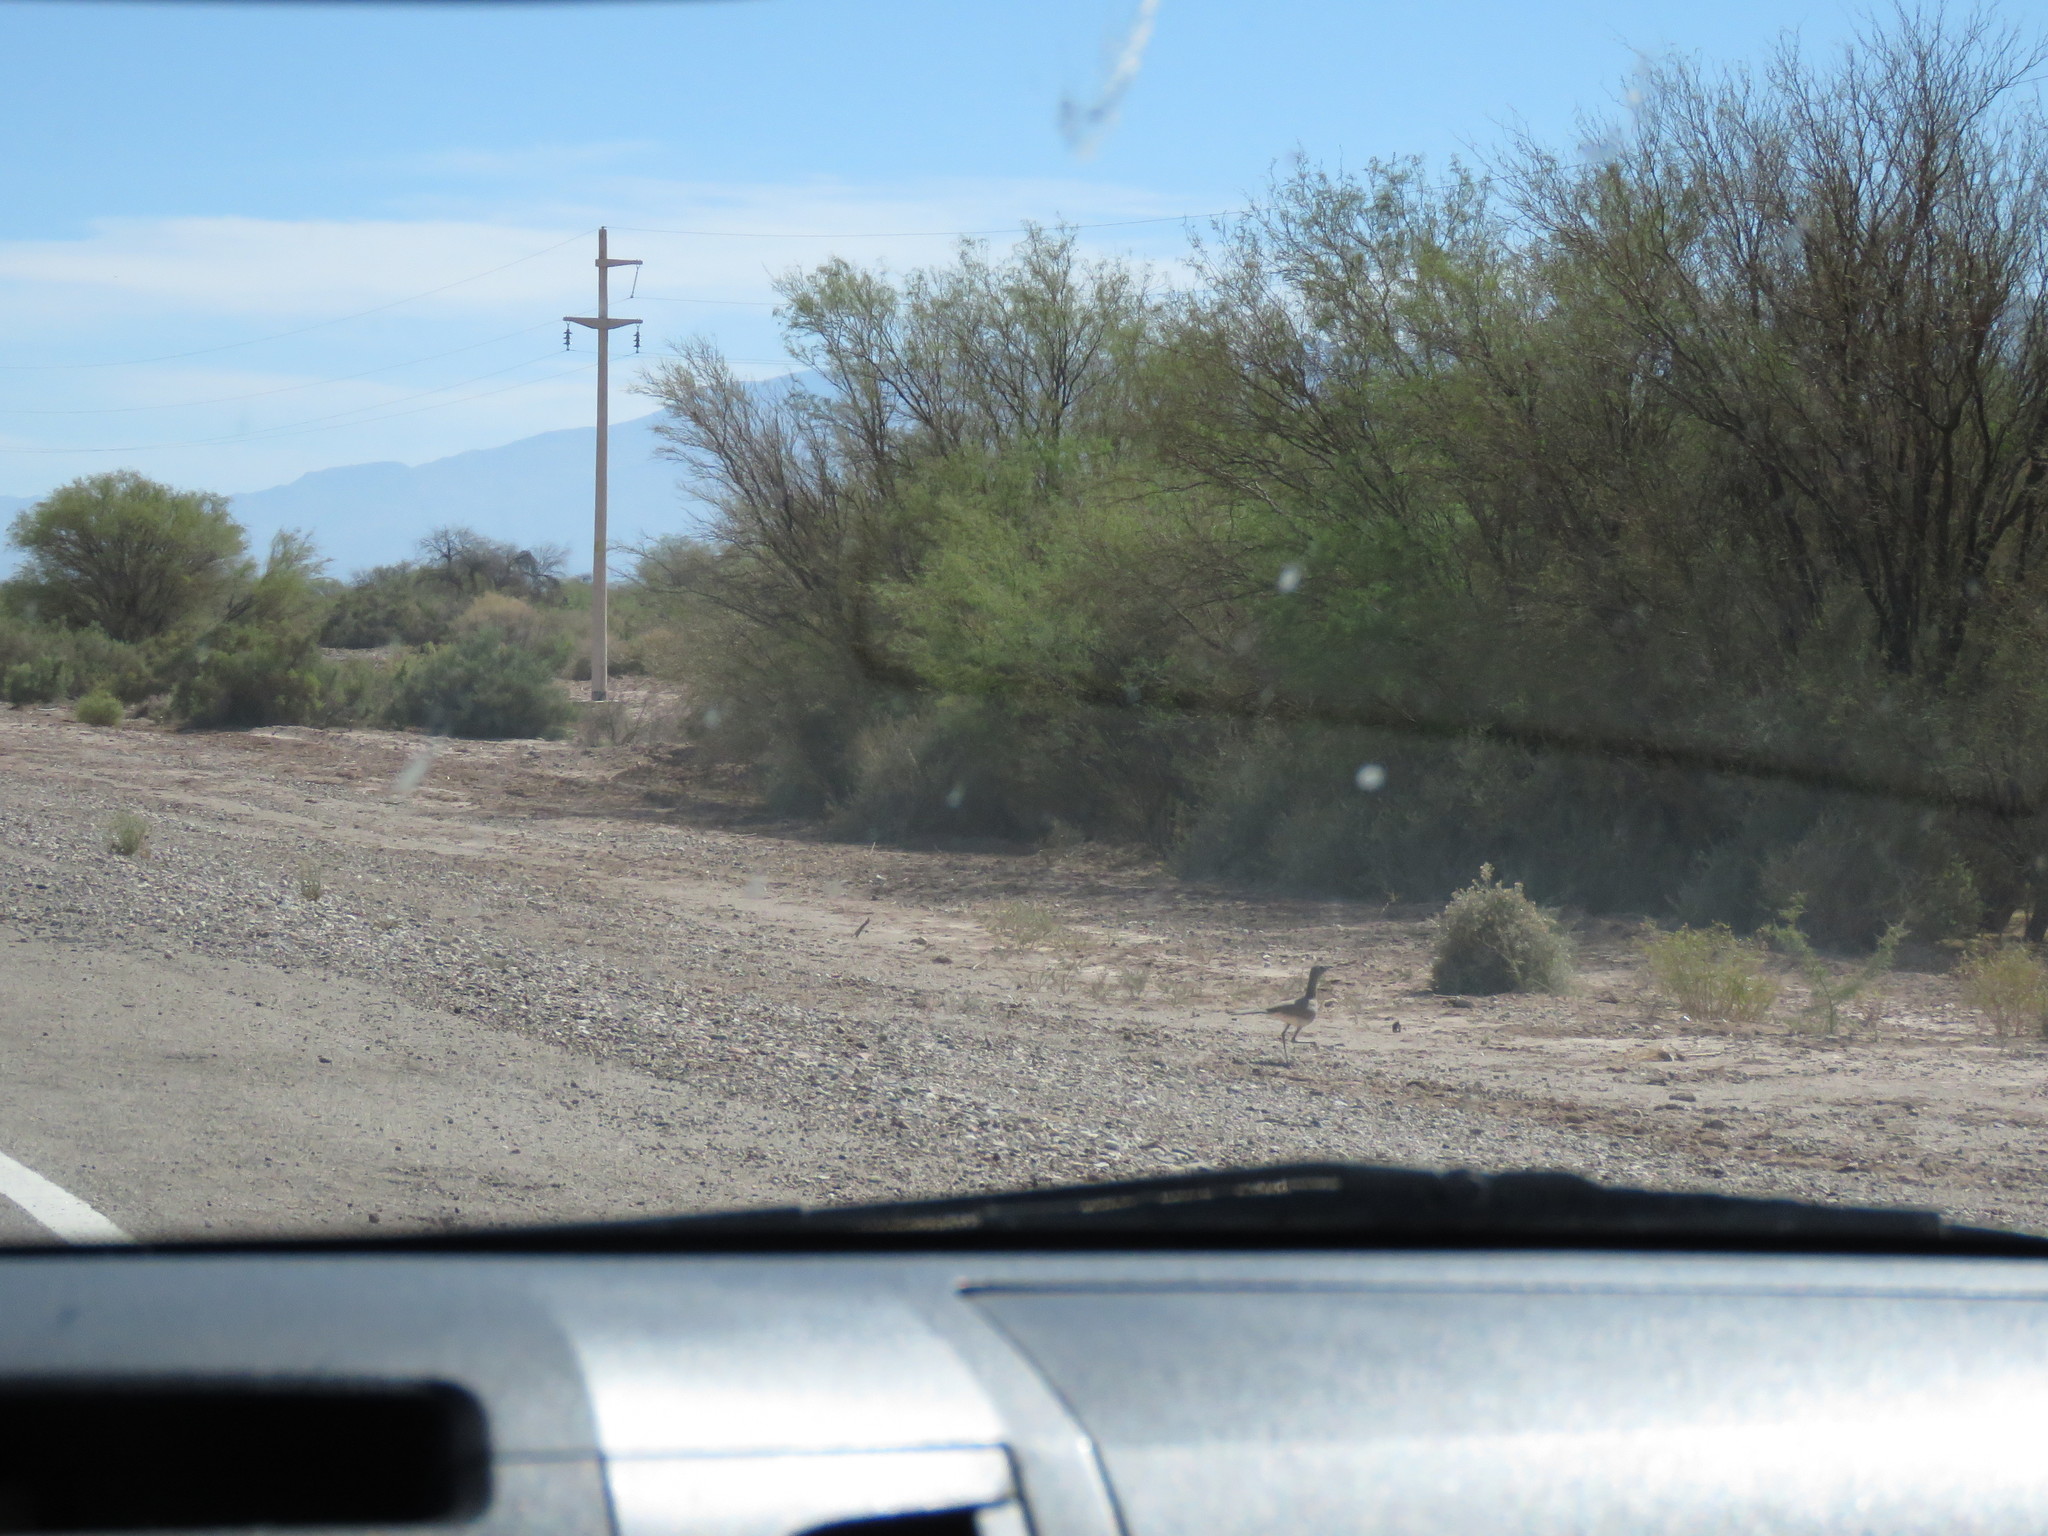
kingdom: Animalia
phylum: Chordata
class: Aves
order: Cariamiformes
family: Cariamidae
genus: Chunga
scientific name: Chunga burmeisteri
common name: Black-legged seriema
